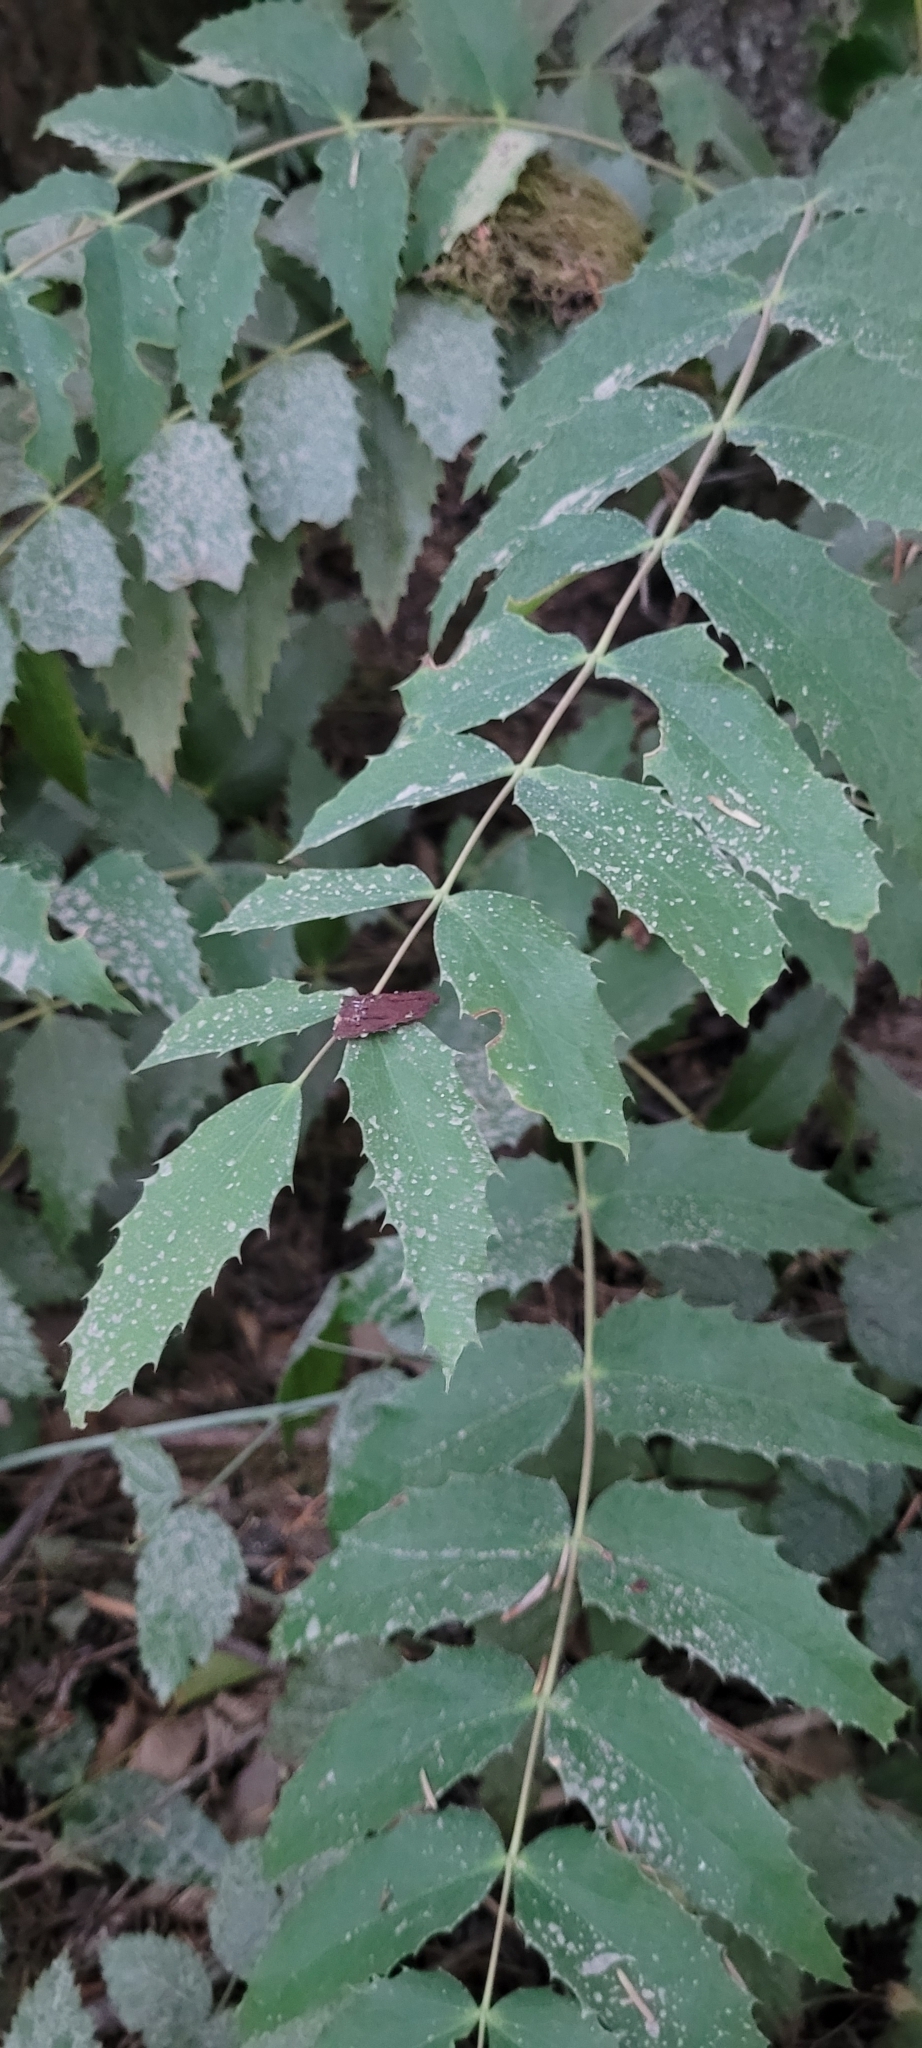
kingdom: Plantae
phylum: Tracheophyta
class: Magnoliopsida
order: Ranunculales
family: Berberidaceae
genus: Mahonia
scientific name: Mahonia nervosa
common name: Cascade oregon-grape
